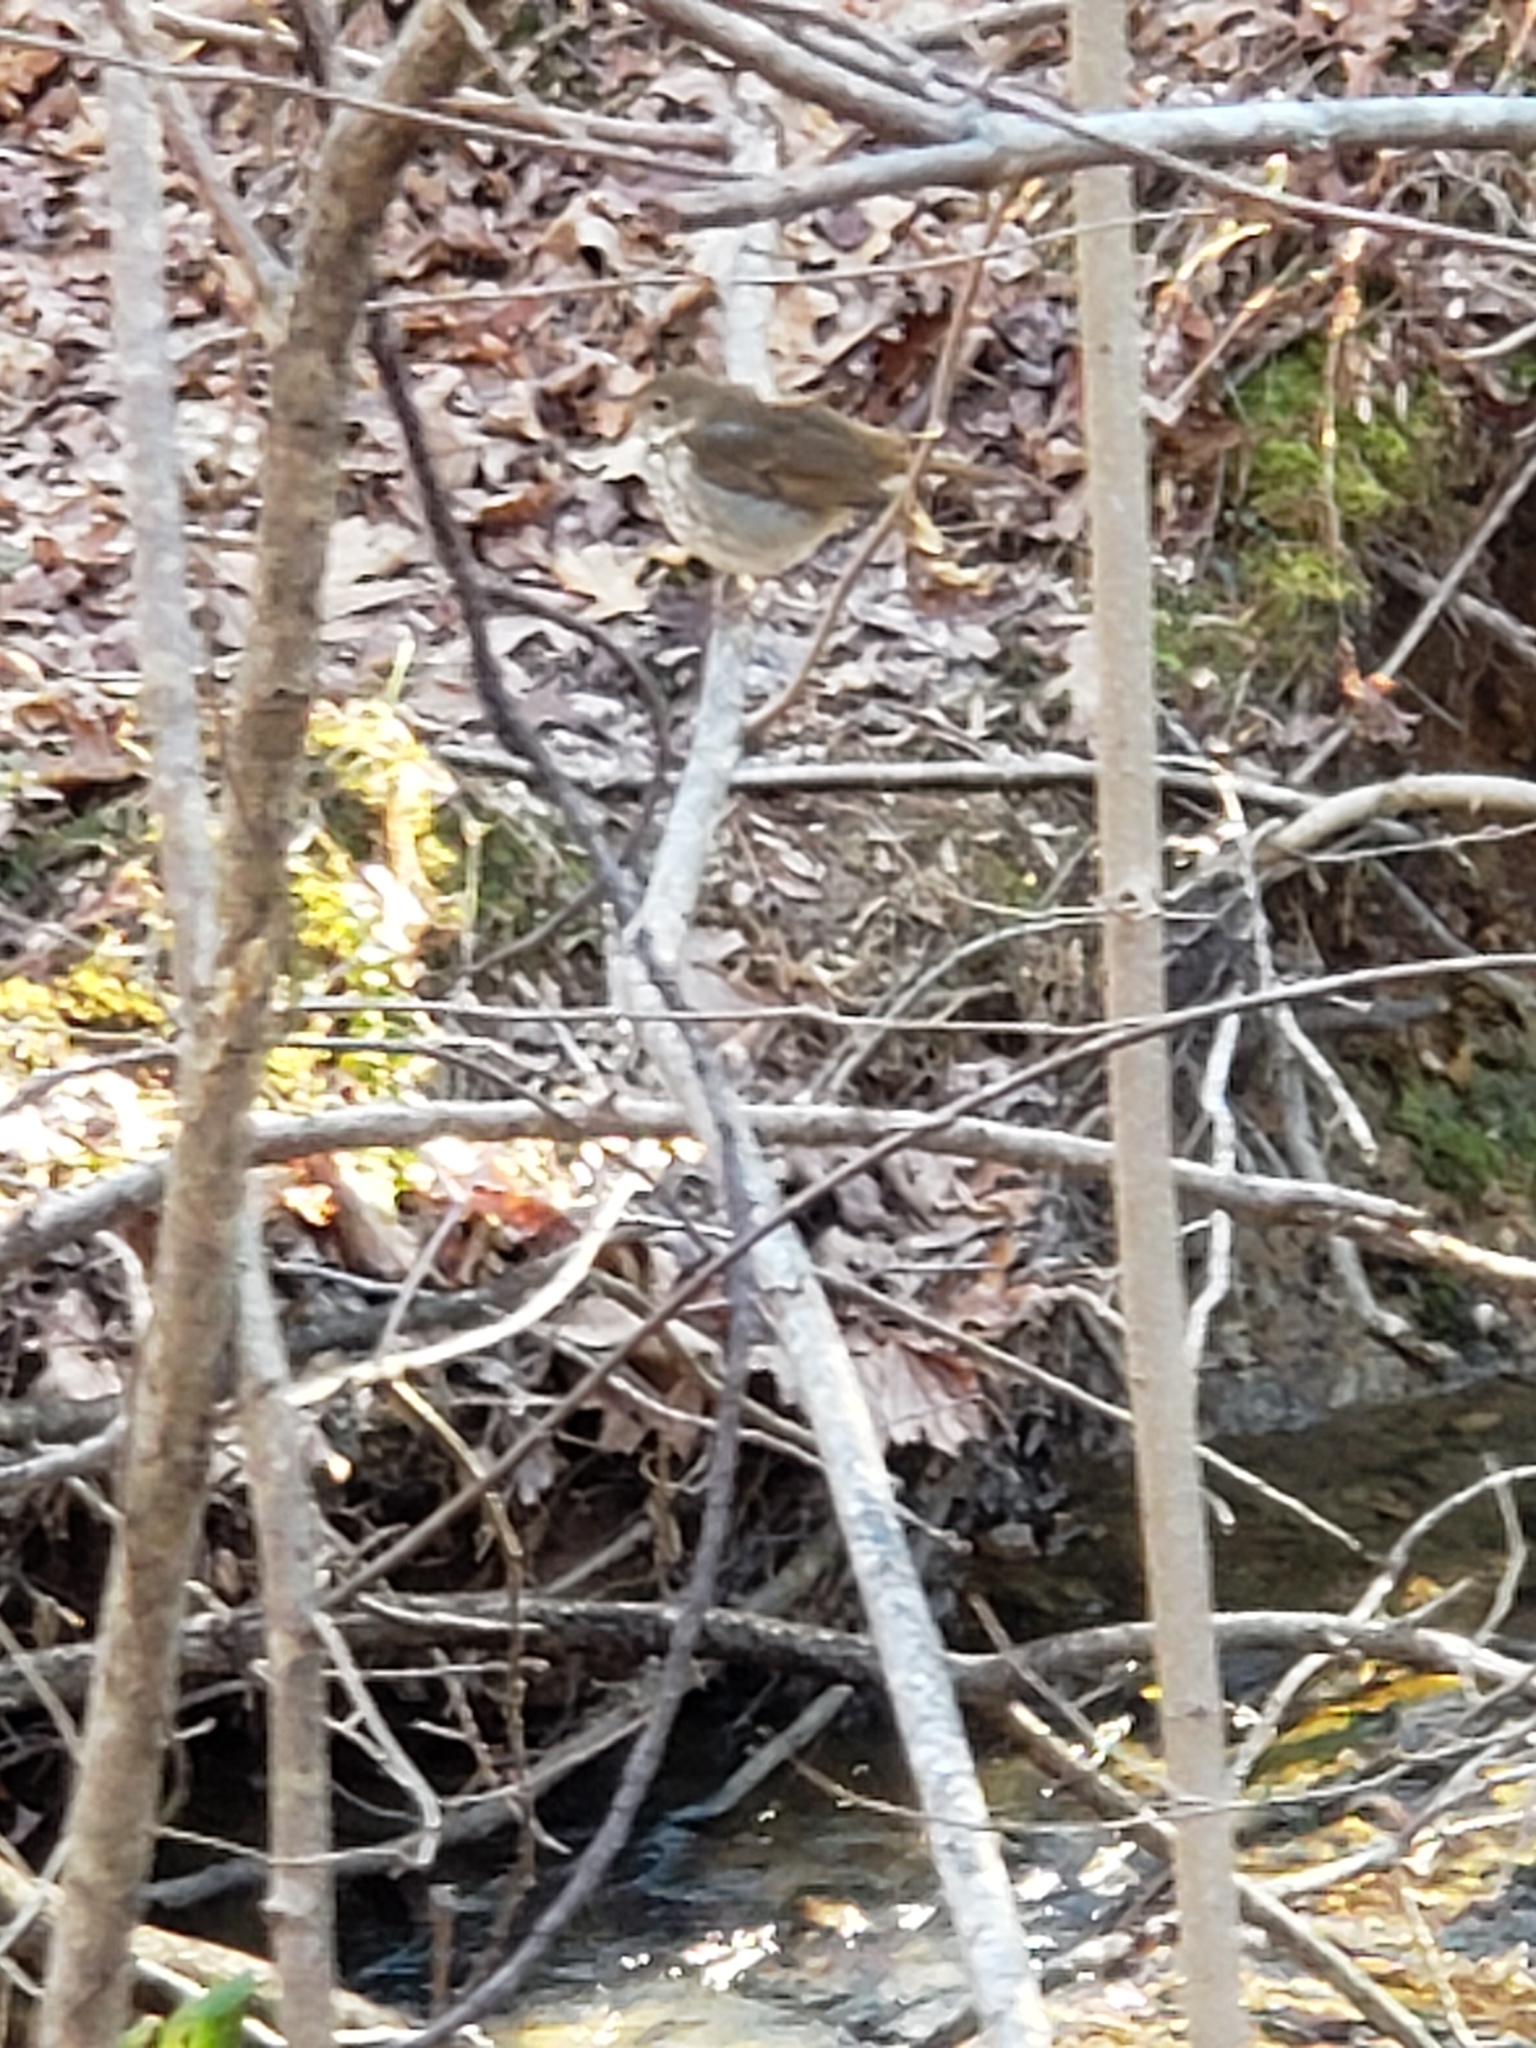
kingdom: Animalia
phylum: Chordata
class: Aves
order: Passeriformes
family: Turdidae
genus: Catharus
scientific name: Catharus guttatus
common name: Hermit thrush
